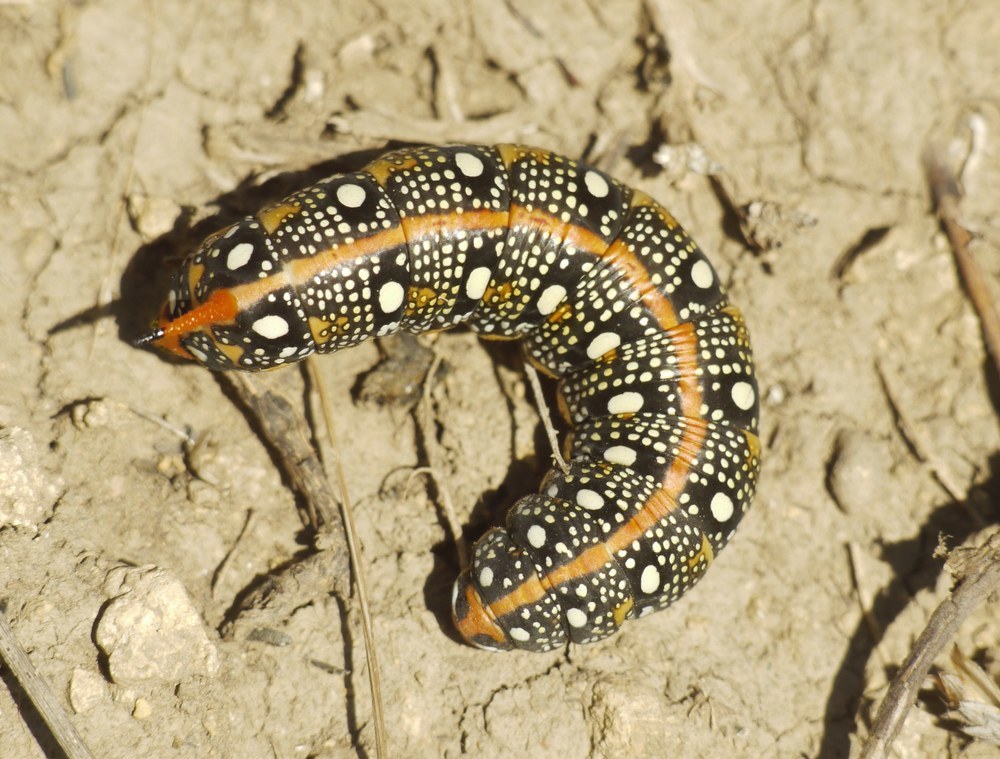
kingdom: Animalia
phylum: Arthropoda
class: Insecta
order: Lepidoptera
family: Sphingidae
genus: Hyles
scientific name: Hyles euphorbiae
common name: Spurge hawk-moth
